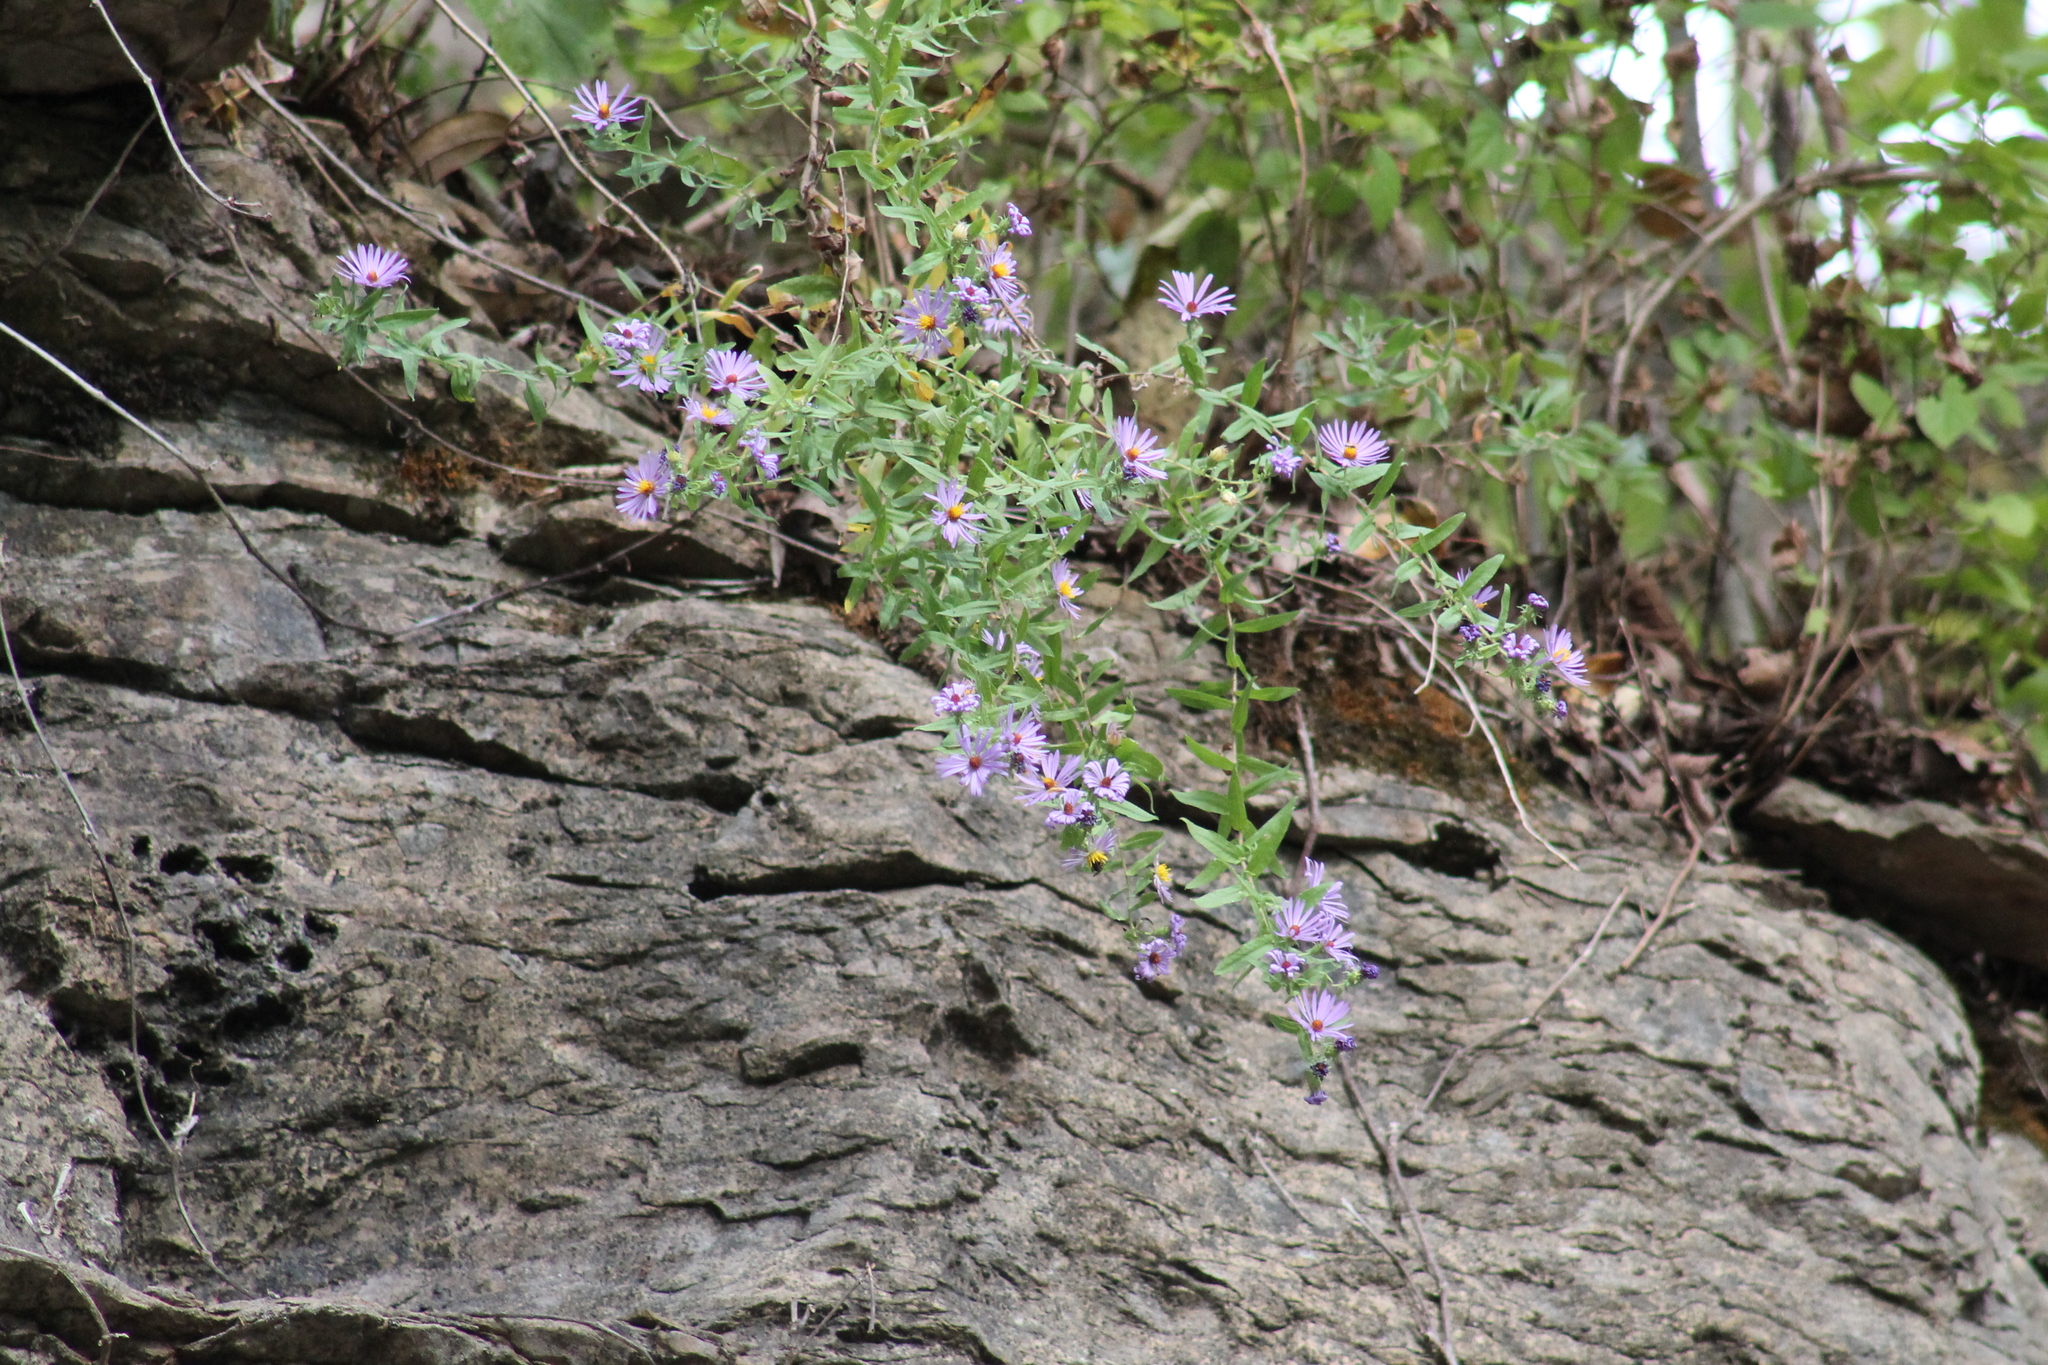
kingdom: Plantae
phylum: Tracheophyta
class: Magnoliopsida
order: Asterales
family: Asteraceae
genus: Symphyotrichum
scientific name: Symphyotrichum oblongifolium
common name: Aromatic aster
